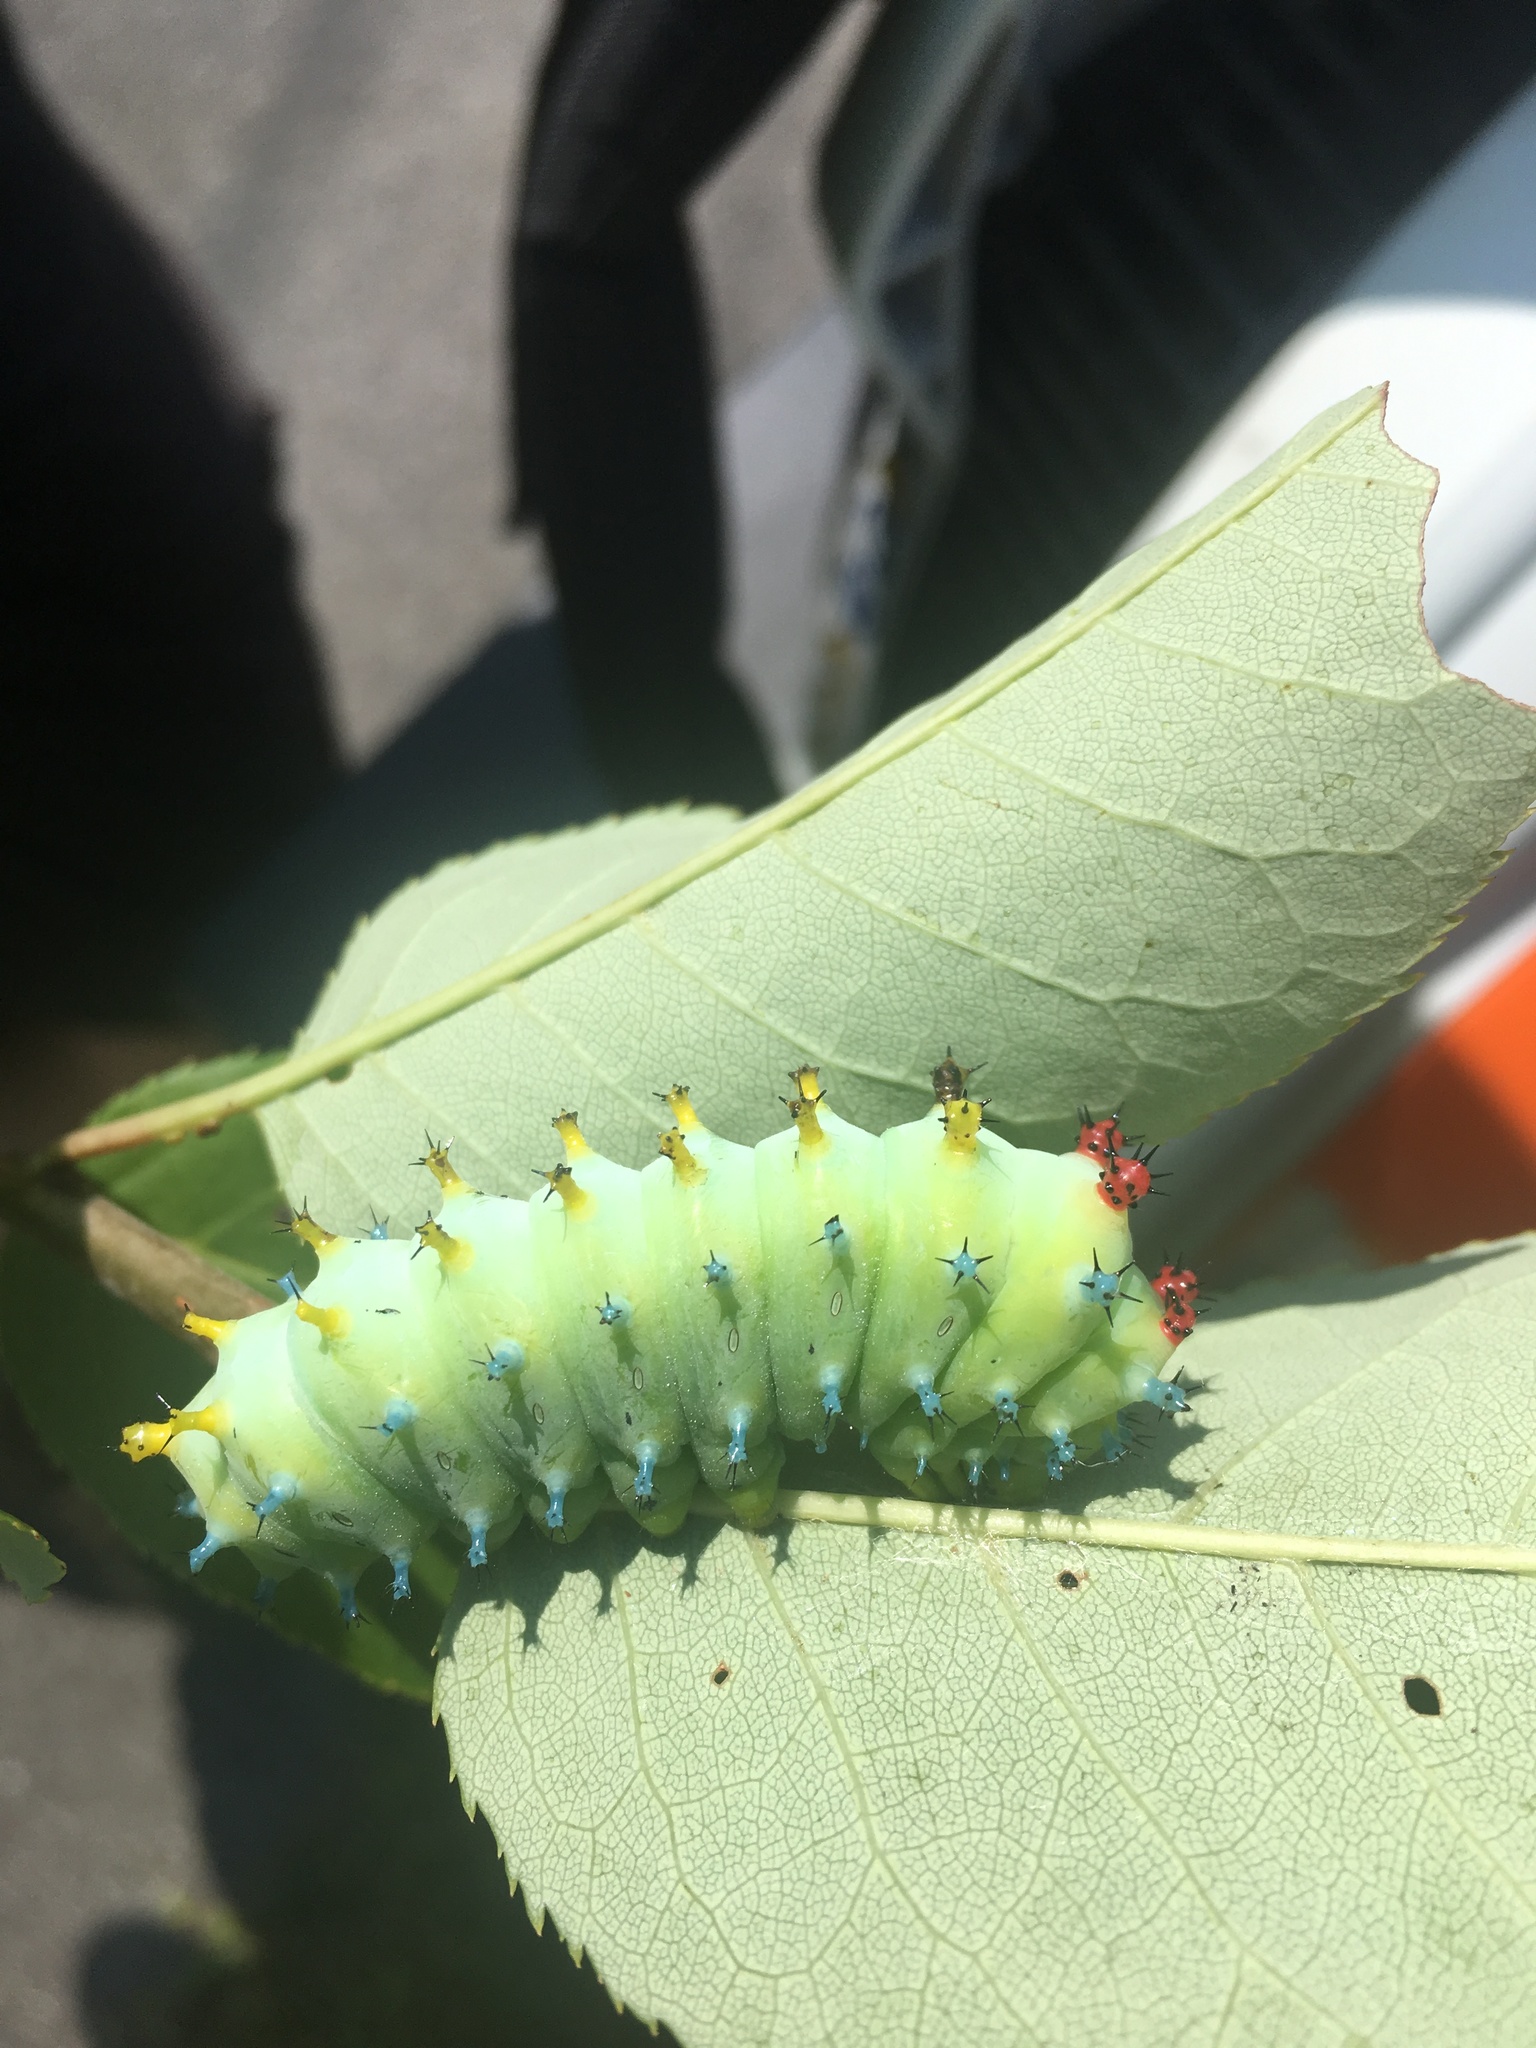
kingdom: Animalia
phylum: Arthropoda
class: Insecta
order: Lepidoptera
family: Saturniidae
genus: Hyalophora
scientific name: Hyalophora cecropia
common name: Cecropia silkmoth
